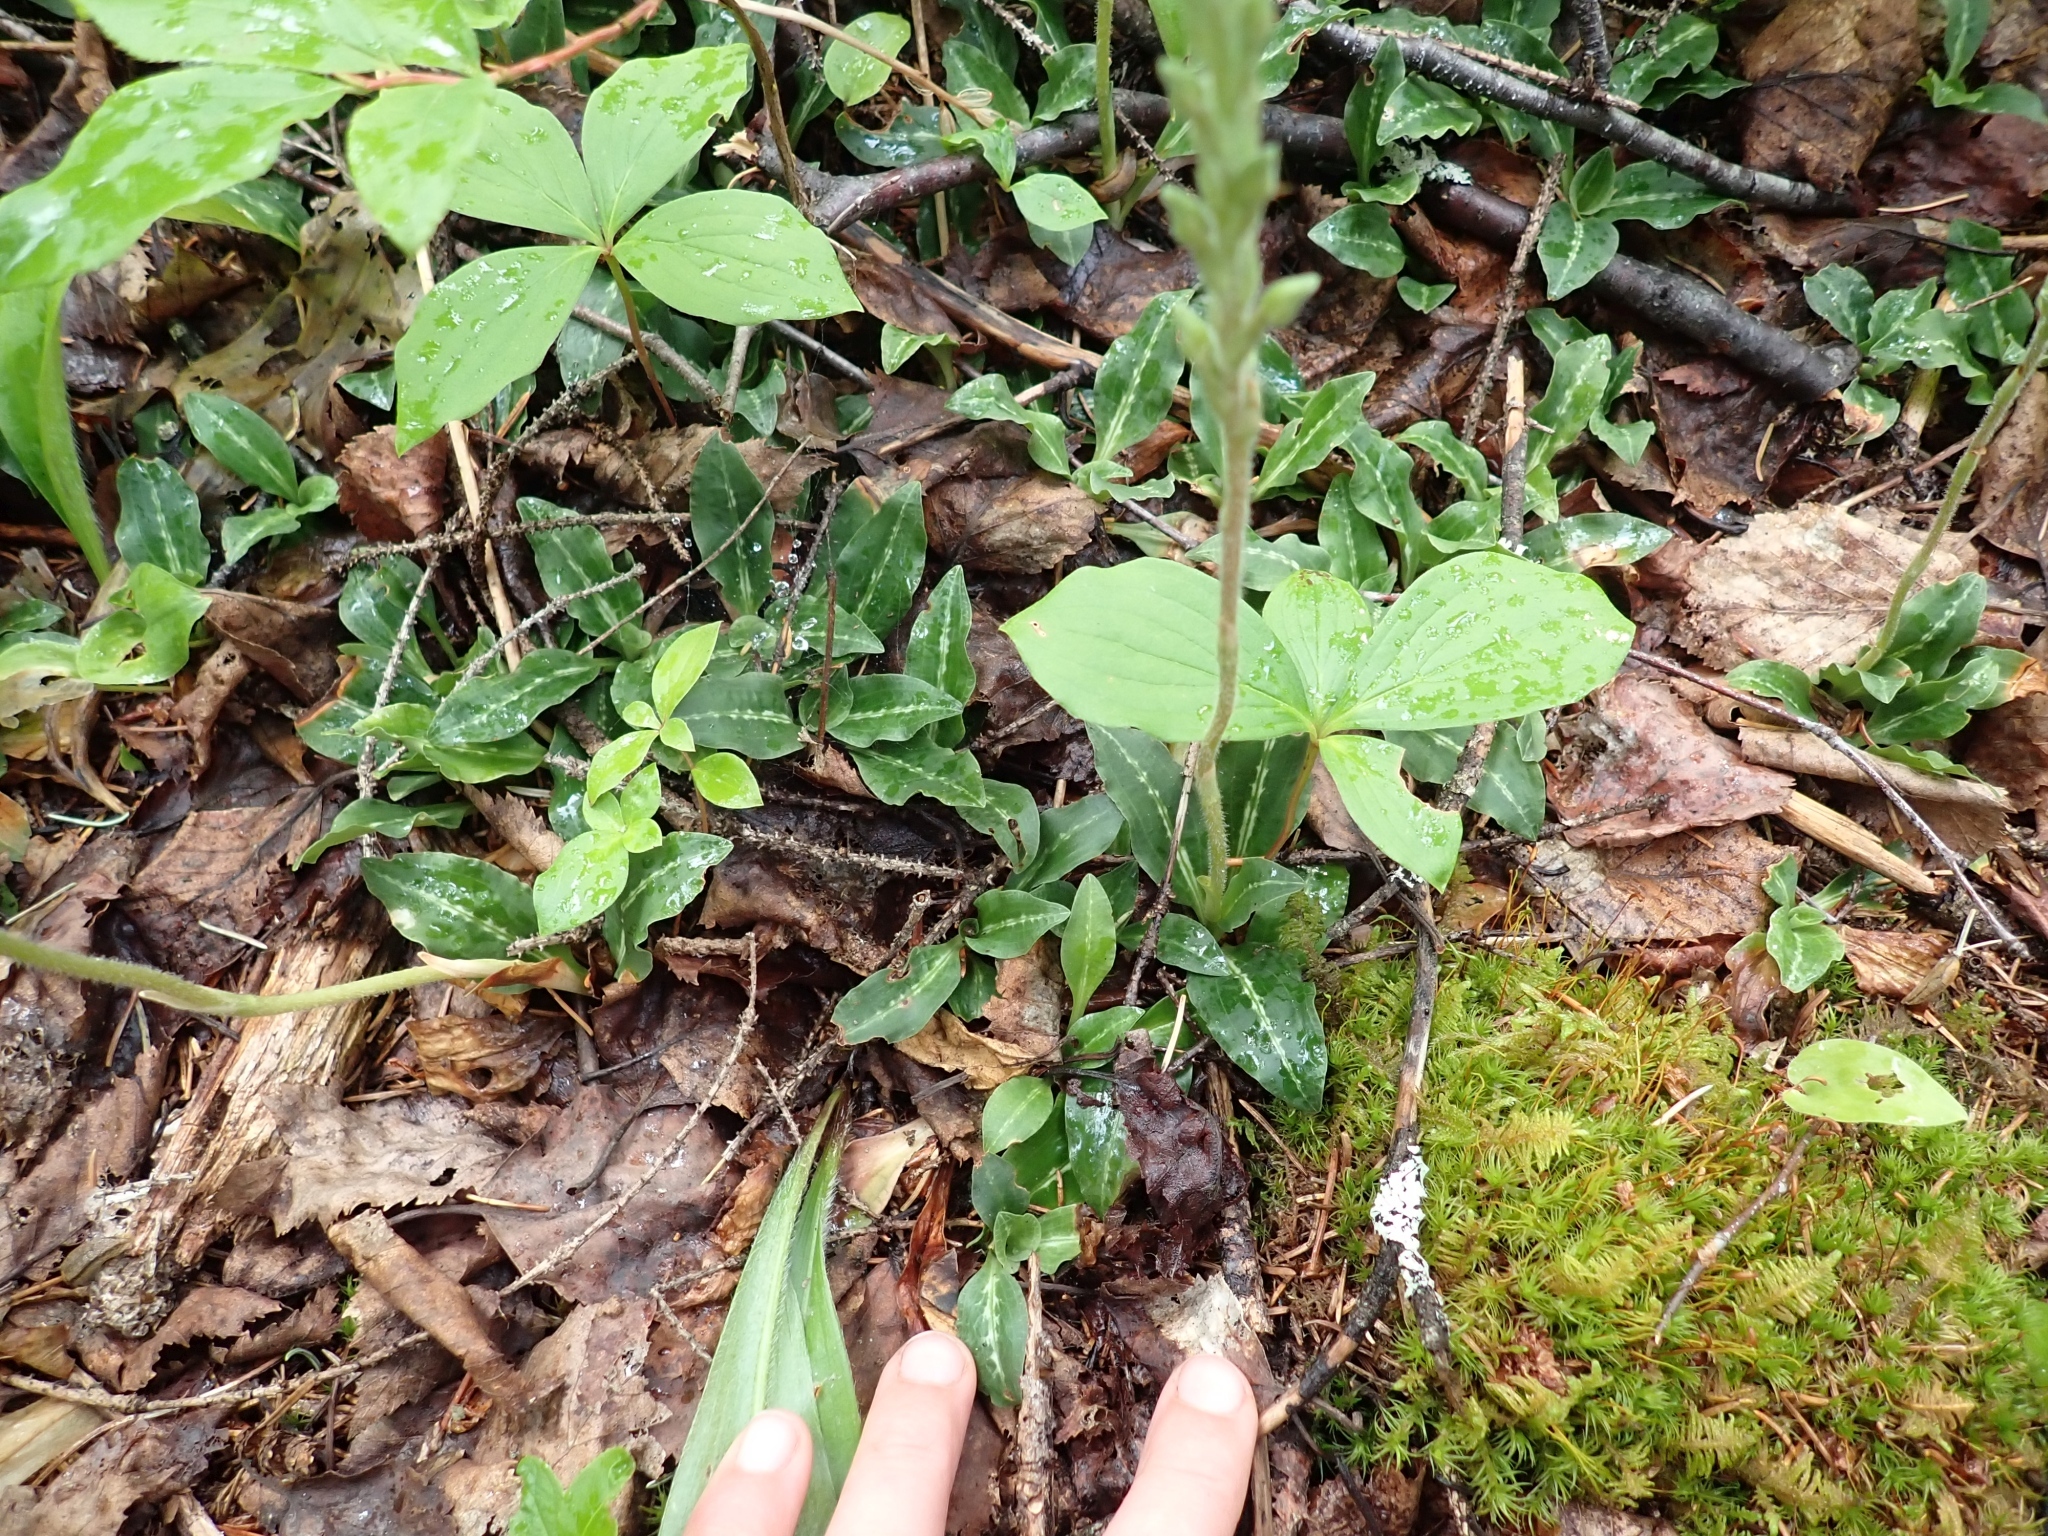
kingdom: Plantae
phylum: Tracheophyta
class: Liliopsida
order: Asparagales
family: Orchidaceae
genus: Goodyera
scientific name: Goodyera oblongifolia
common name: Giant rattlesnake-plantain
